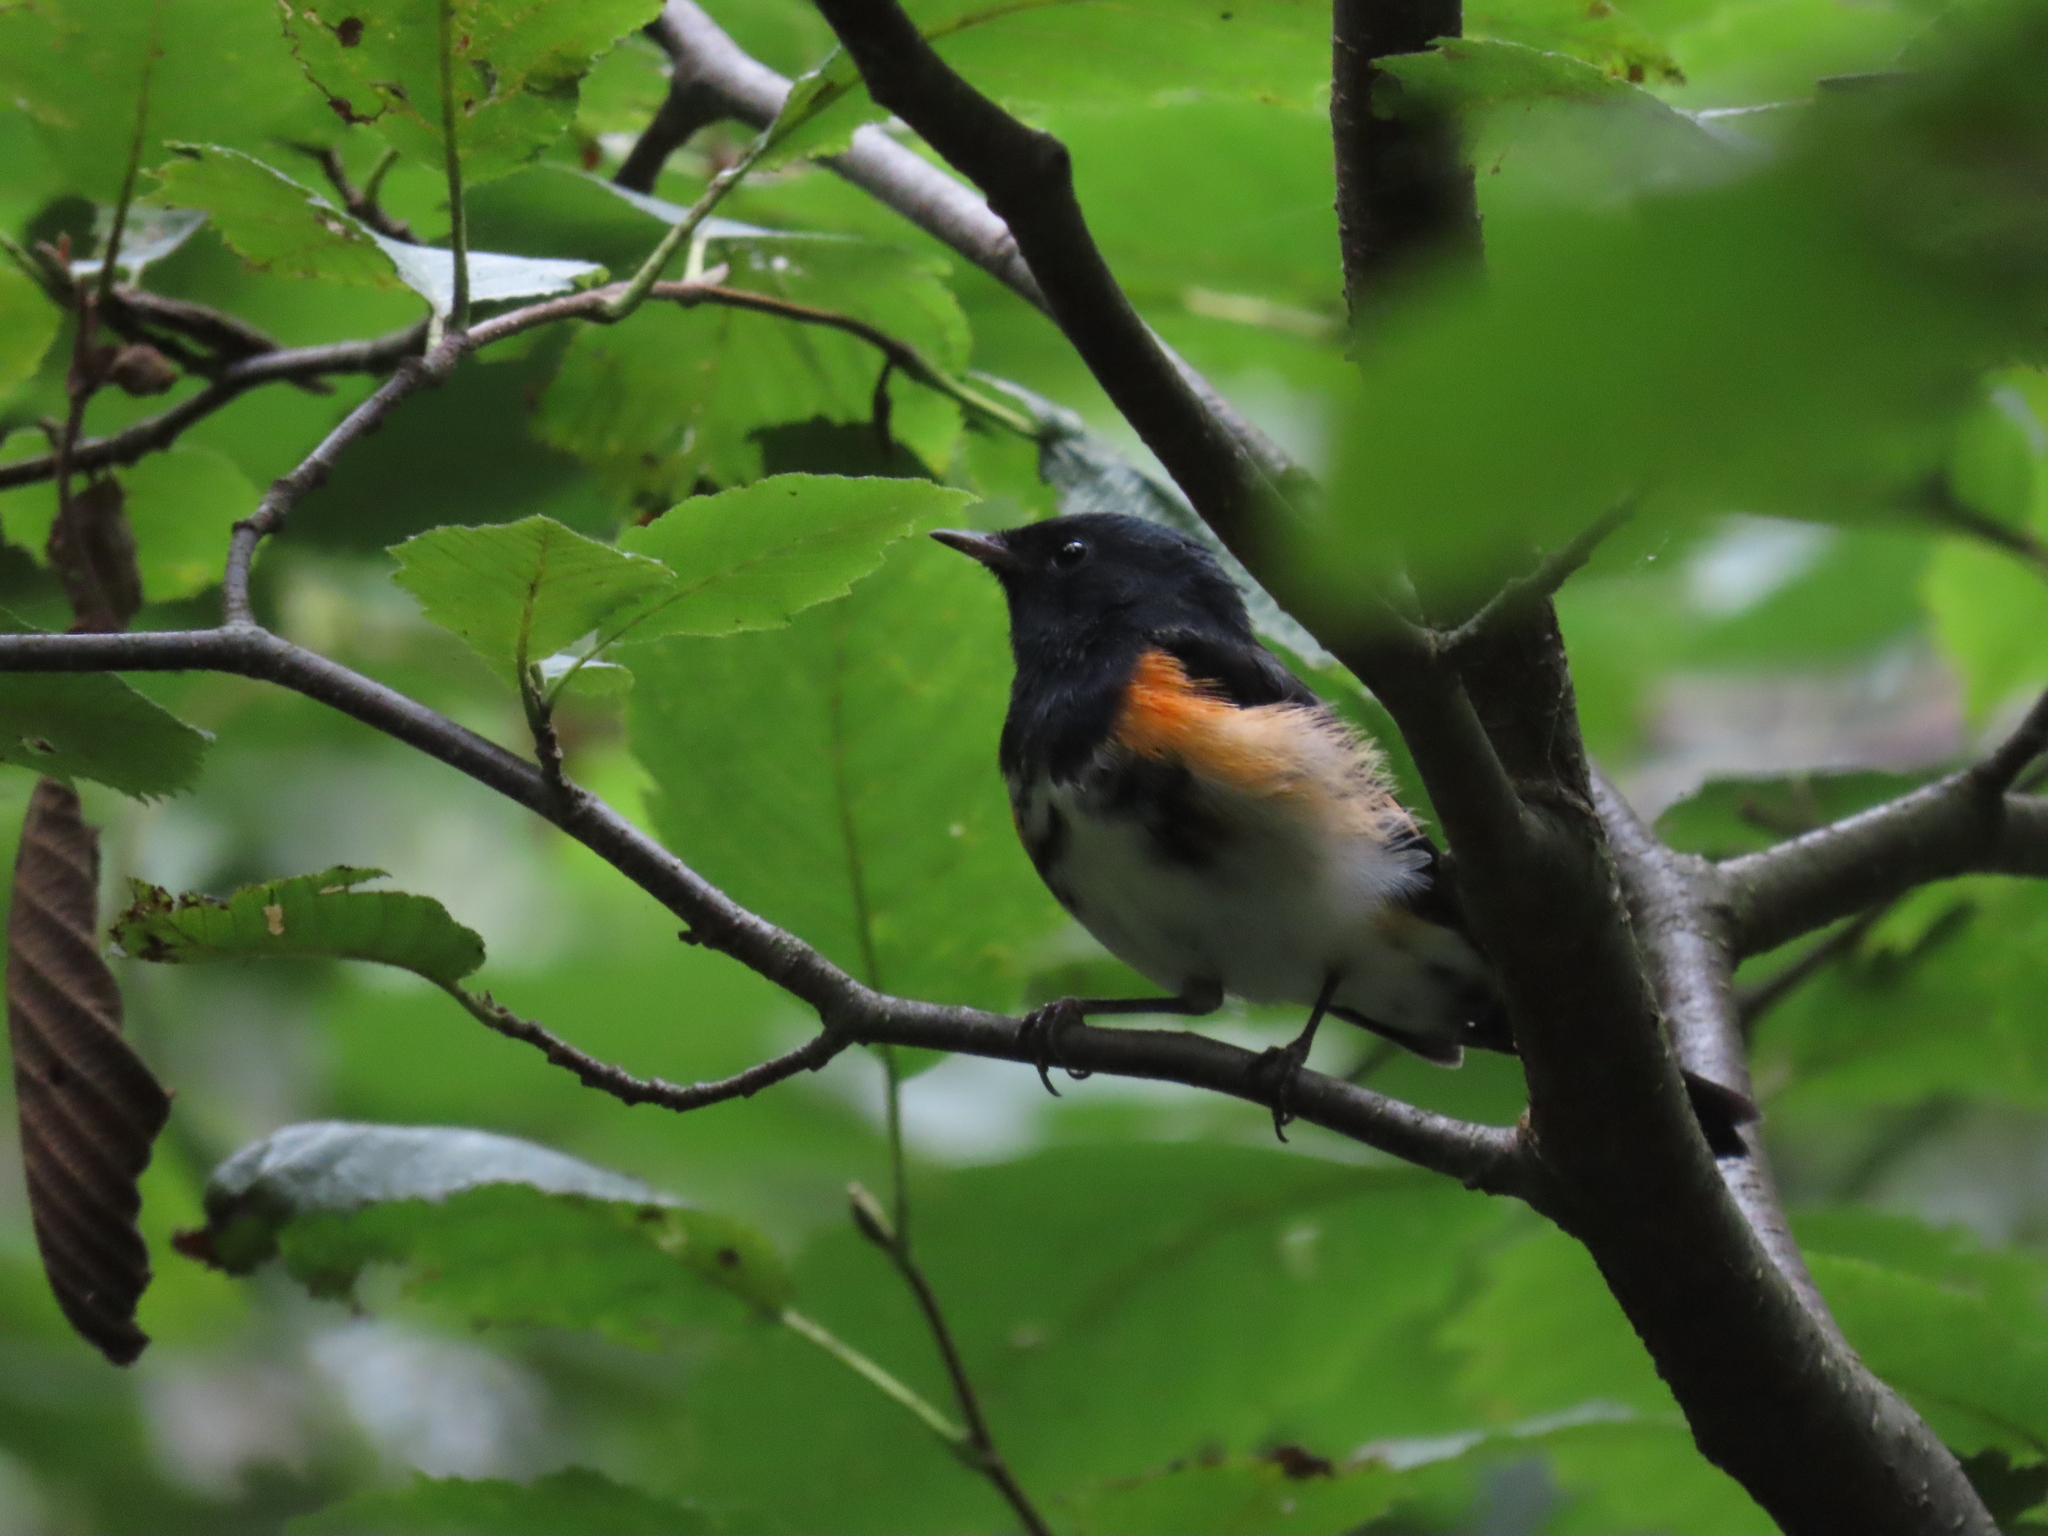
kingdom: Animalia
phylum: Chordata
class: Aves
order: Passeriformes
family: Parulidae
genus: Setophaga
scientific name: Setophaga ruticilla
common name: American redstart
